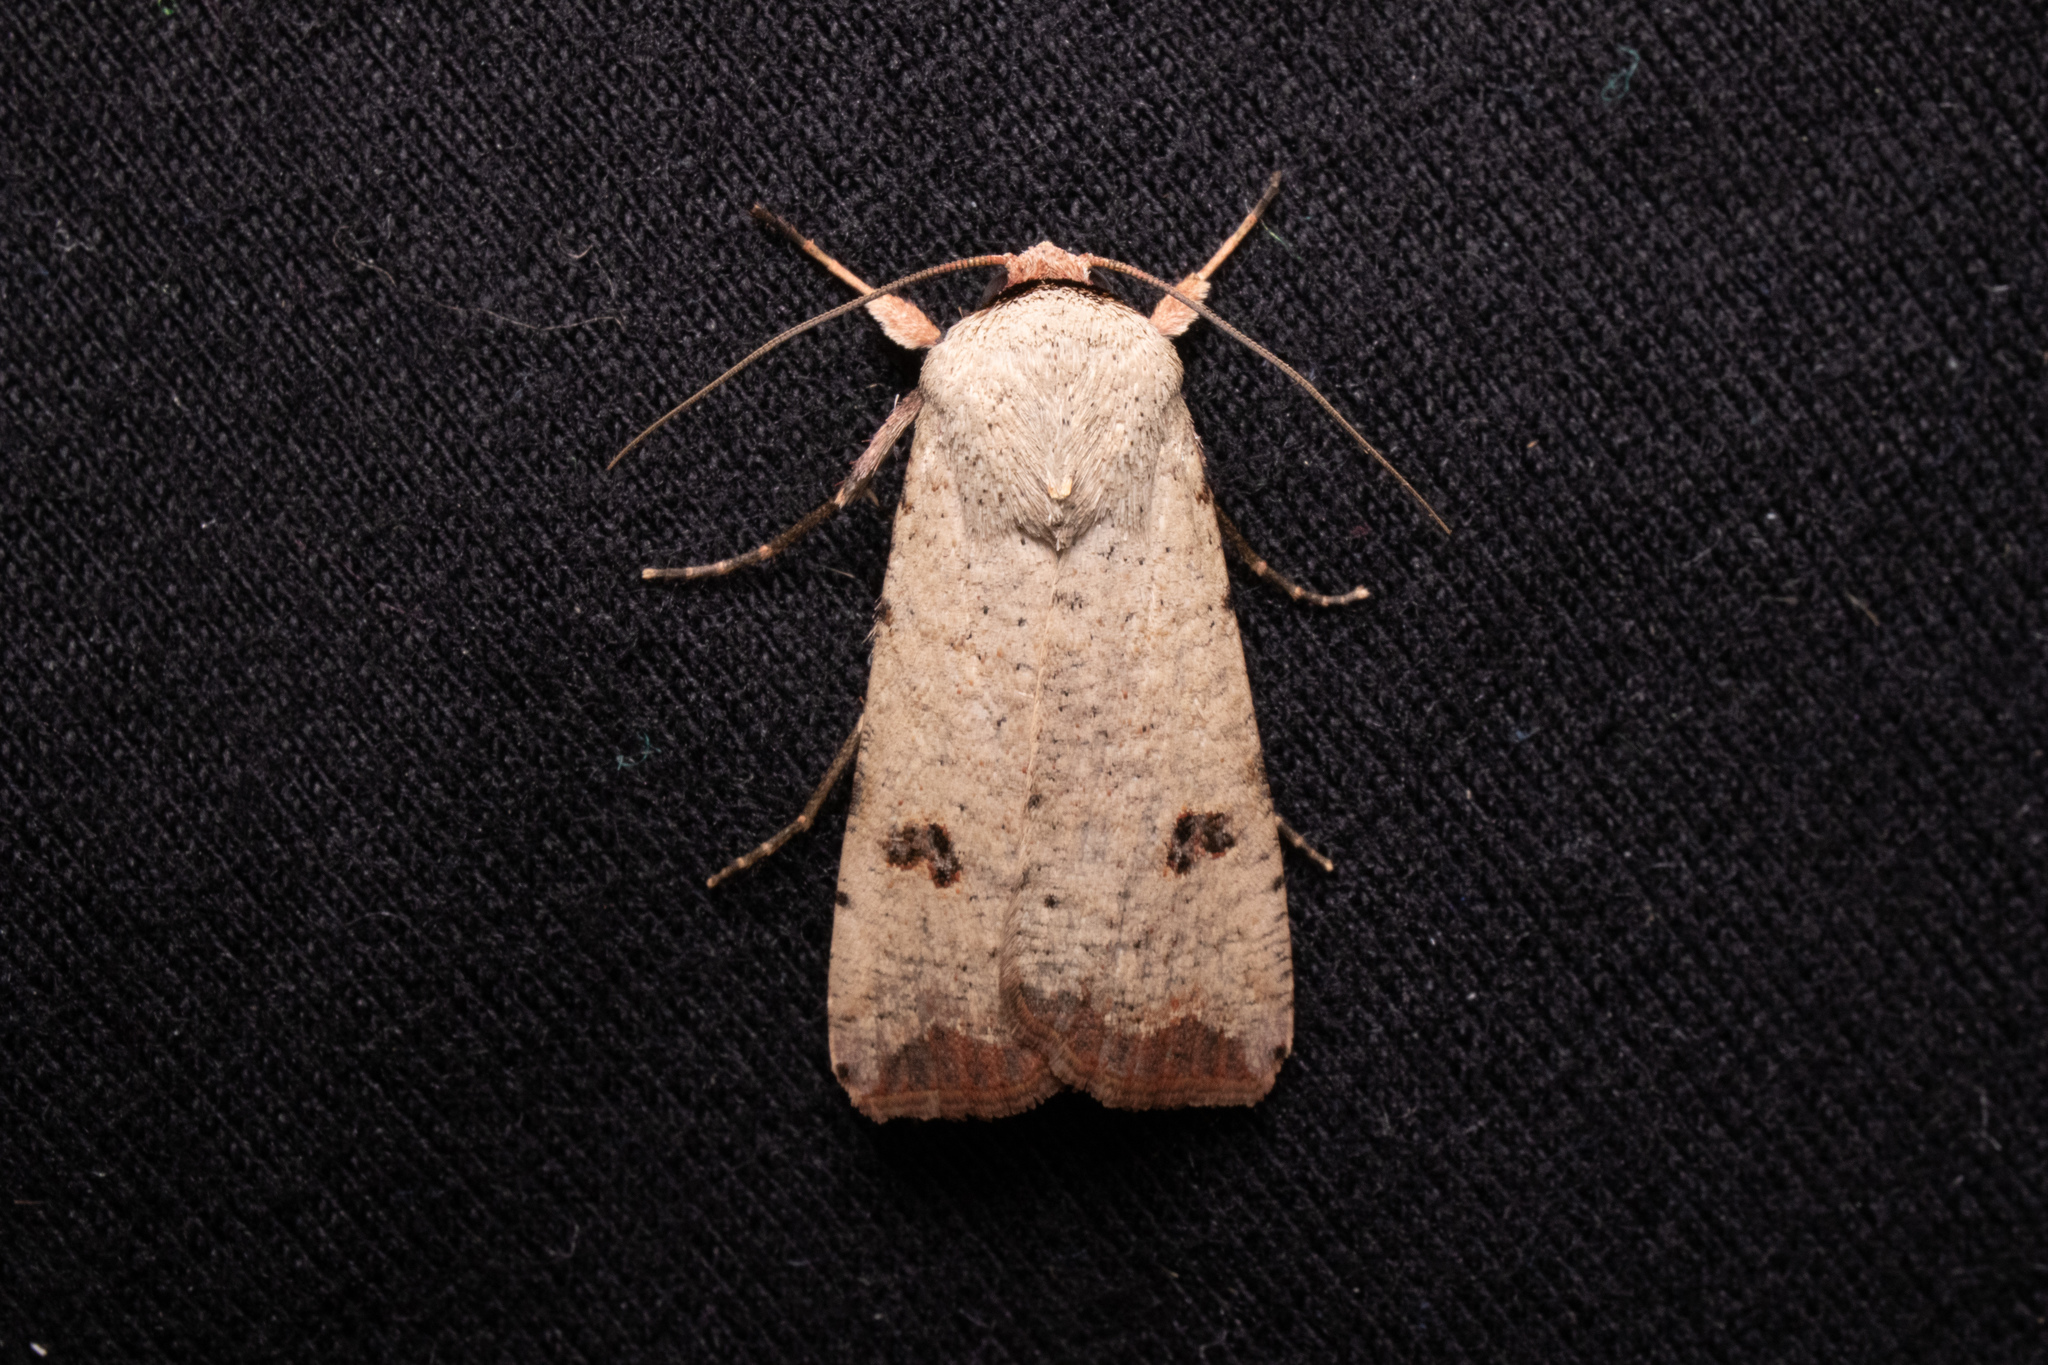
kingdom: Animalia
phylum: Arthropoda
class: Insecta
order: Lepidoptera
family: Noctuidae
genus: Anicla
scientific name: Anicla infecta
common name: Green cutworm
